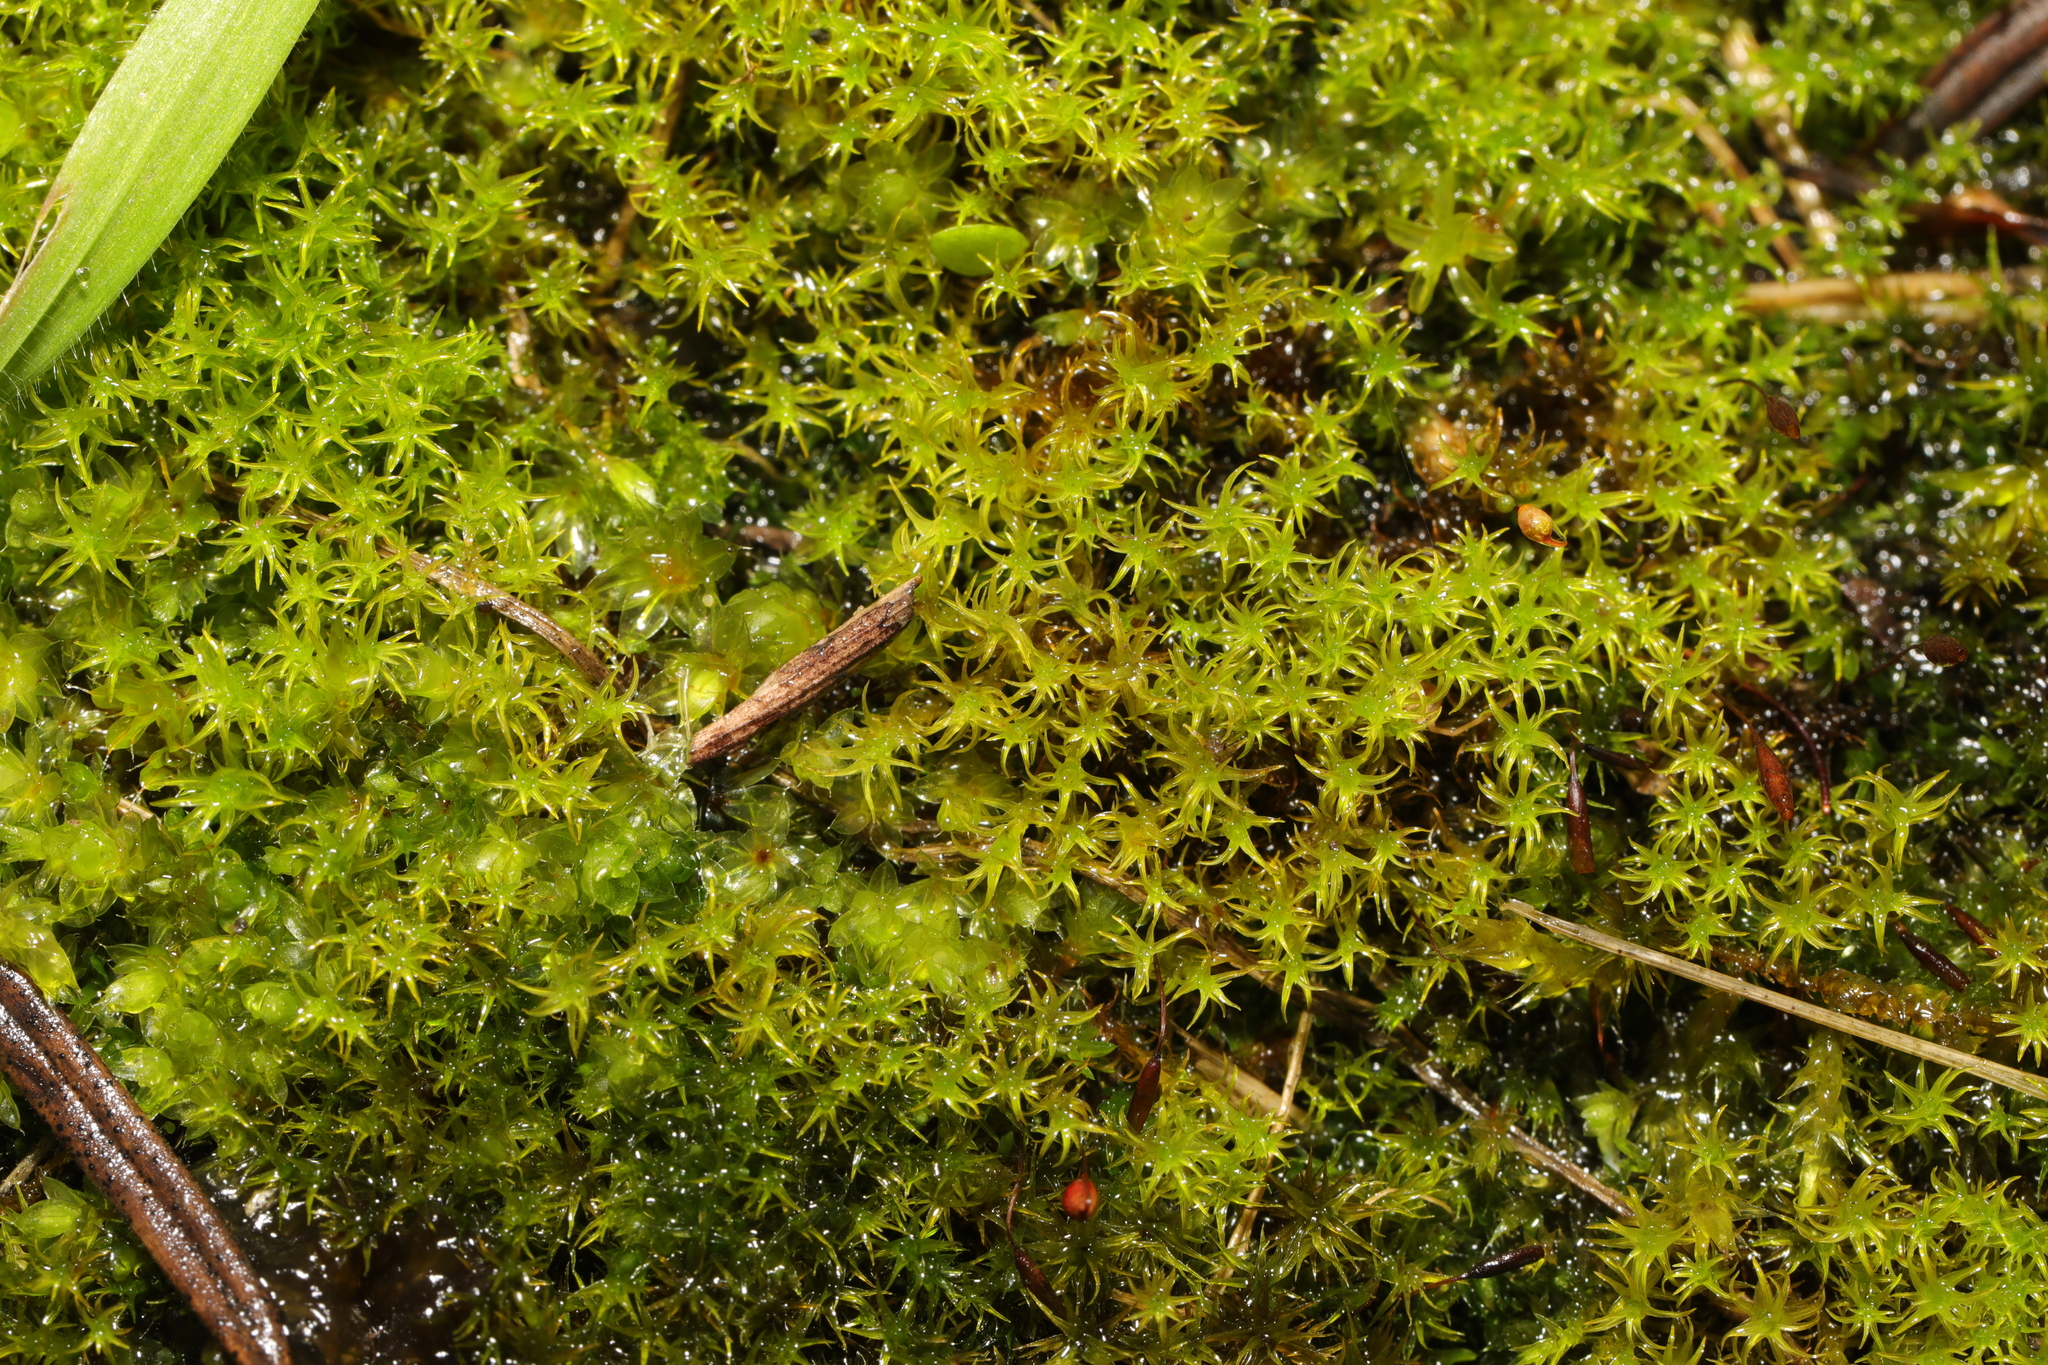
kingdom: Plantae
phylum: Bryophyta
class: Bryopsida
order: Pottiales
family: Pottiaceae
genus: Vinealobryum
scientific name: Vinealobryum insulanum
